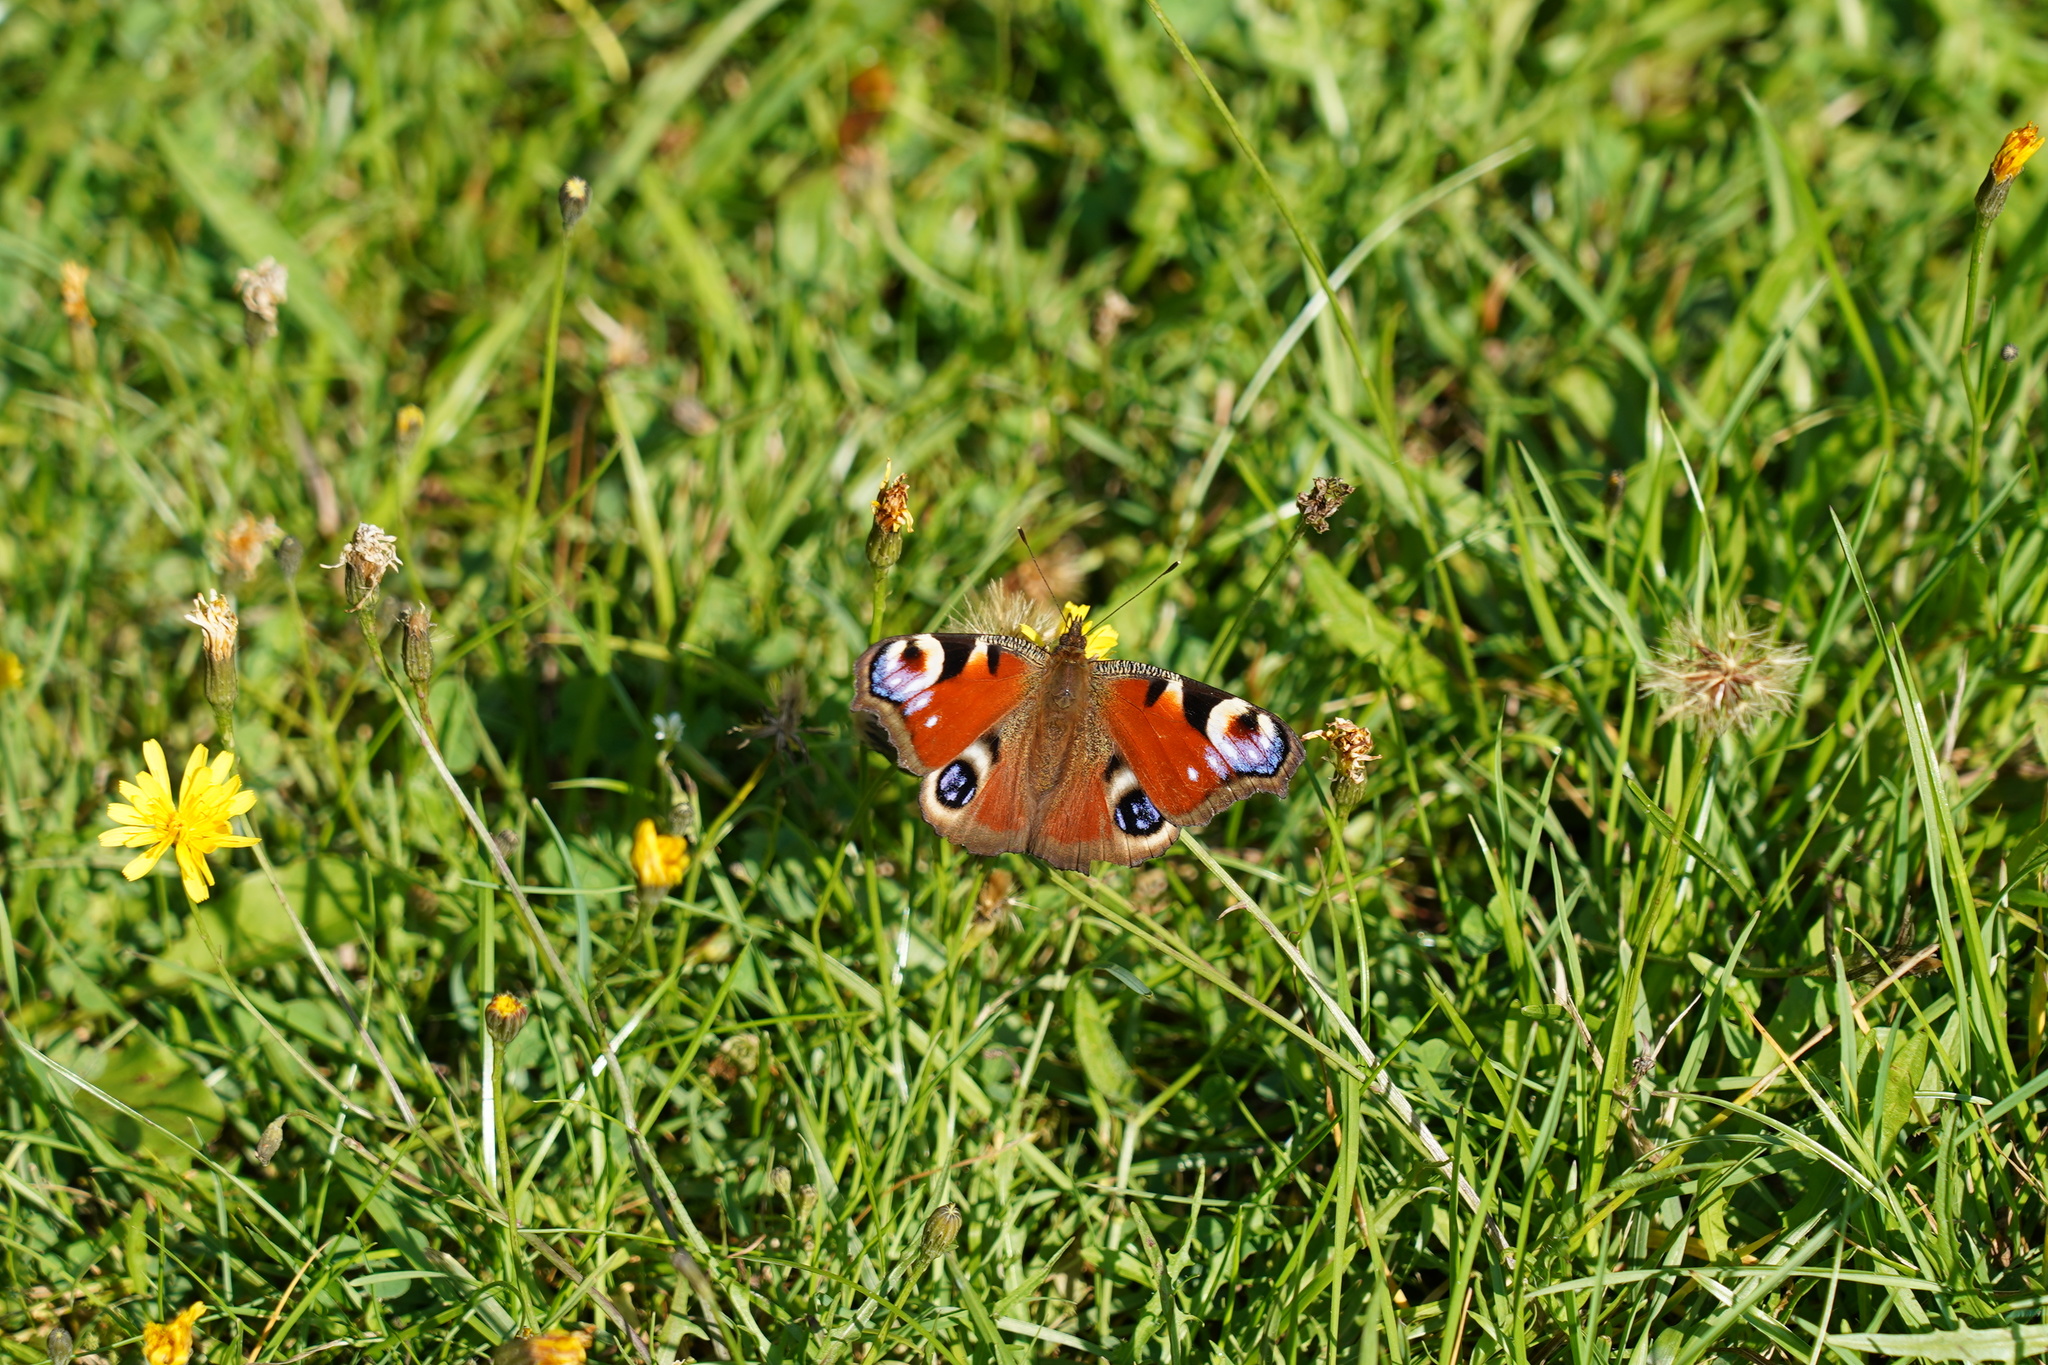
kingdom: Animalia
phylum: Arthropoda
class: Insecta
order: Lepidoptera
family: Nymphalidae
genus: Aglais
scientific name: Aglais io
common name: Peacock
